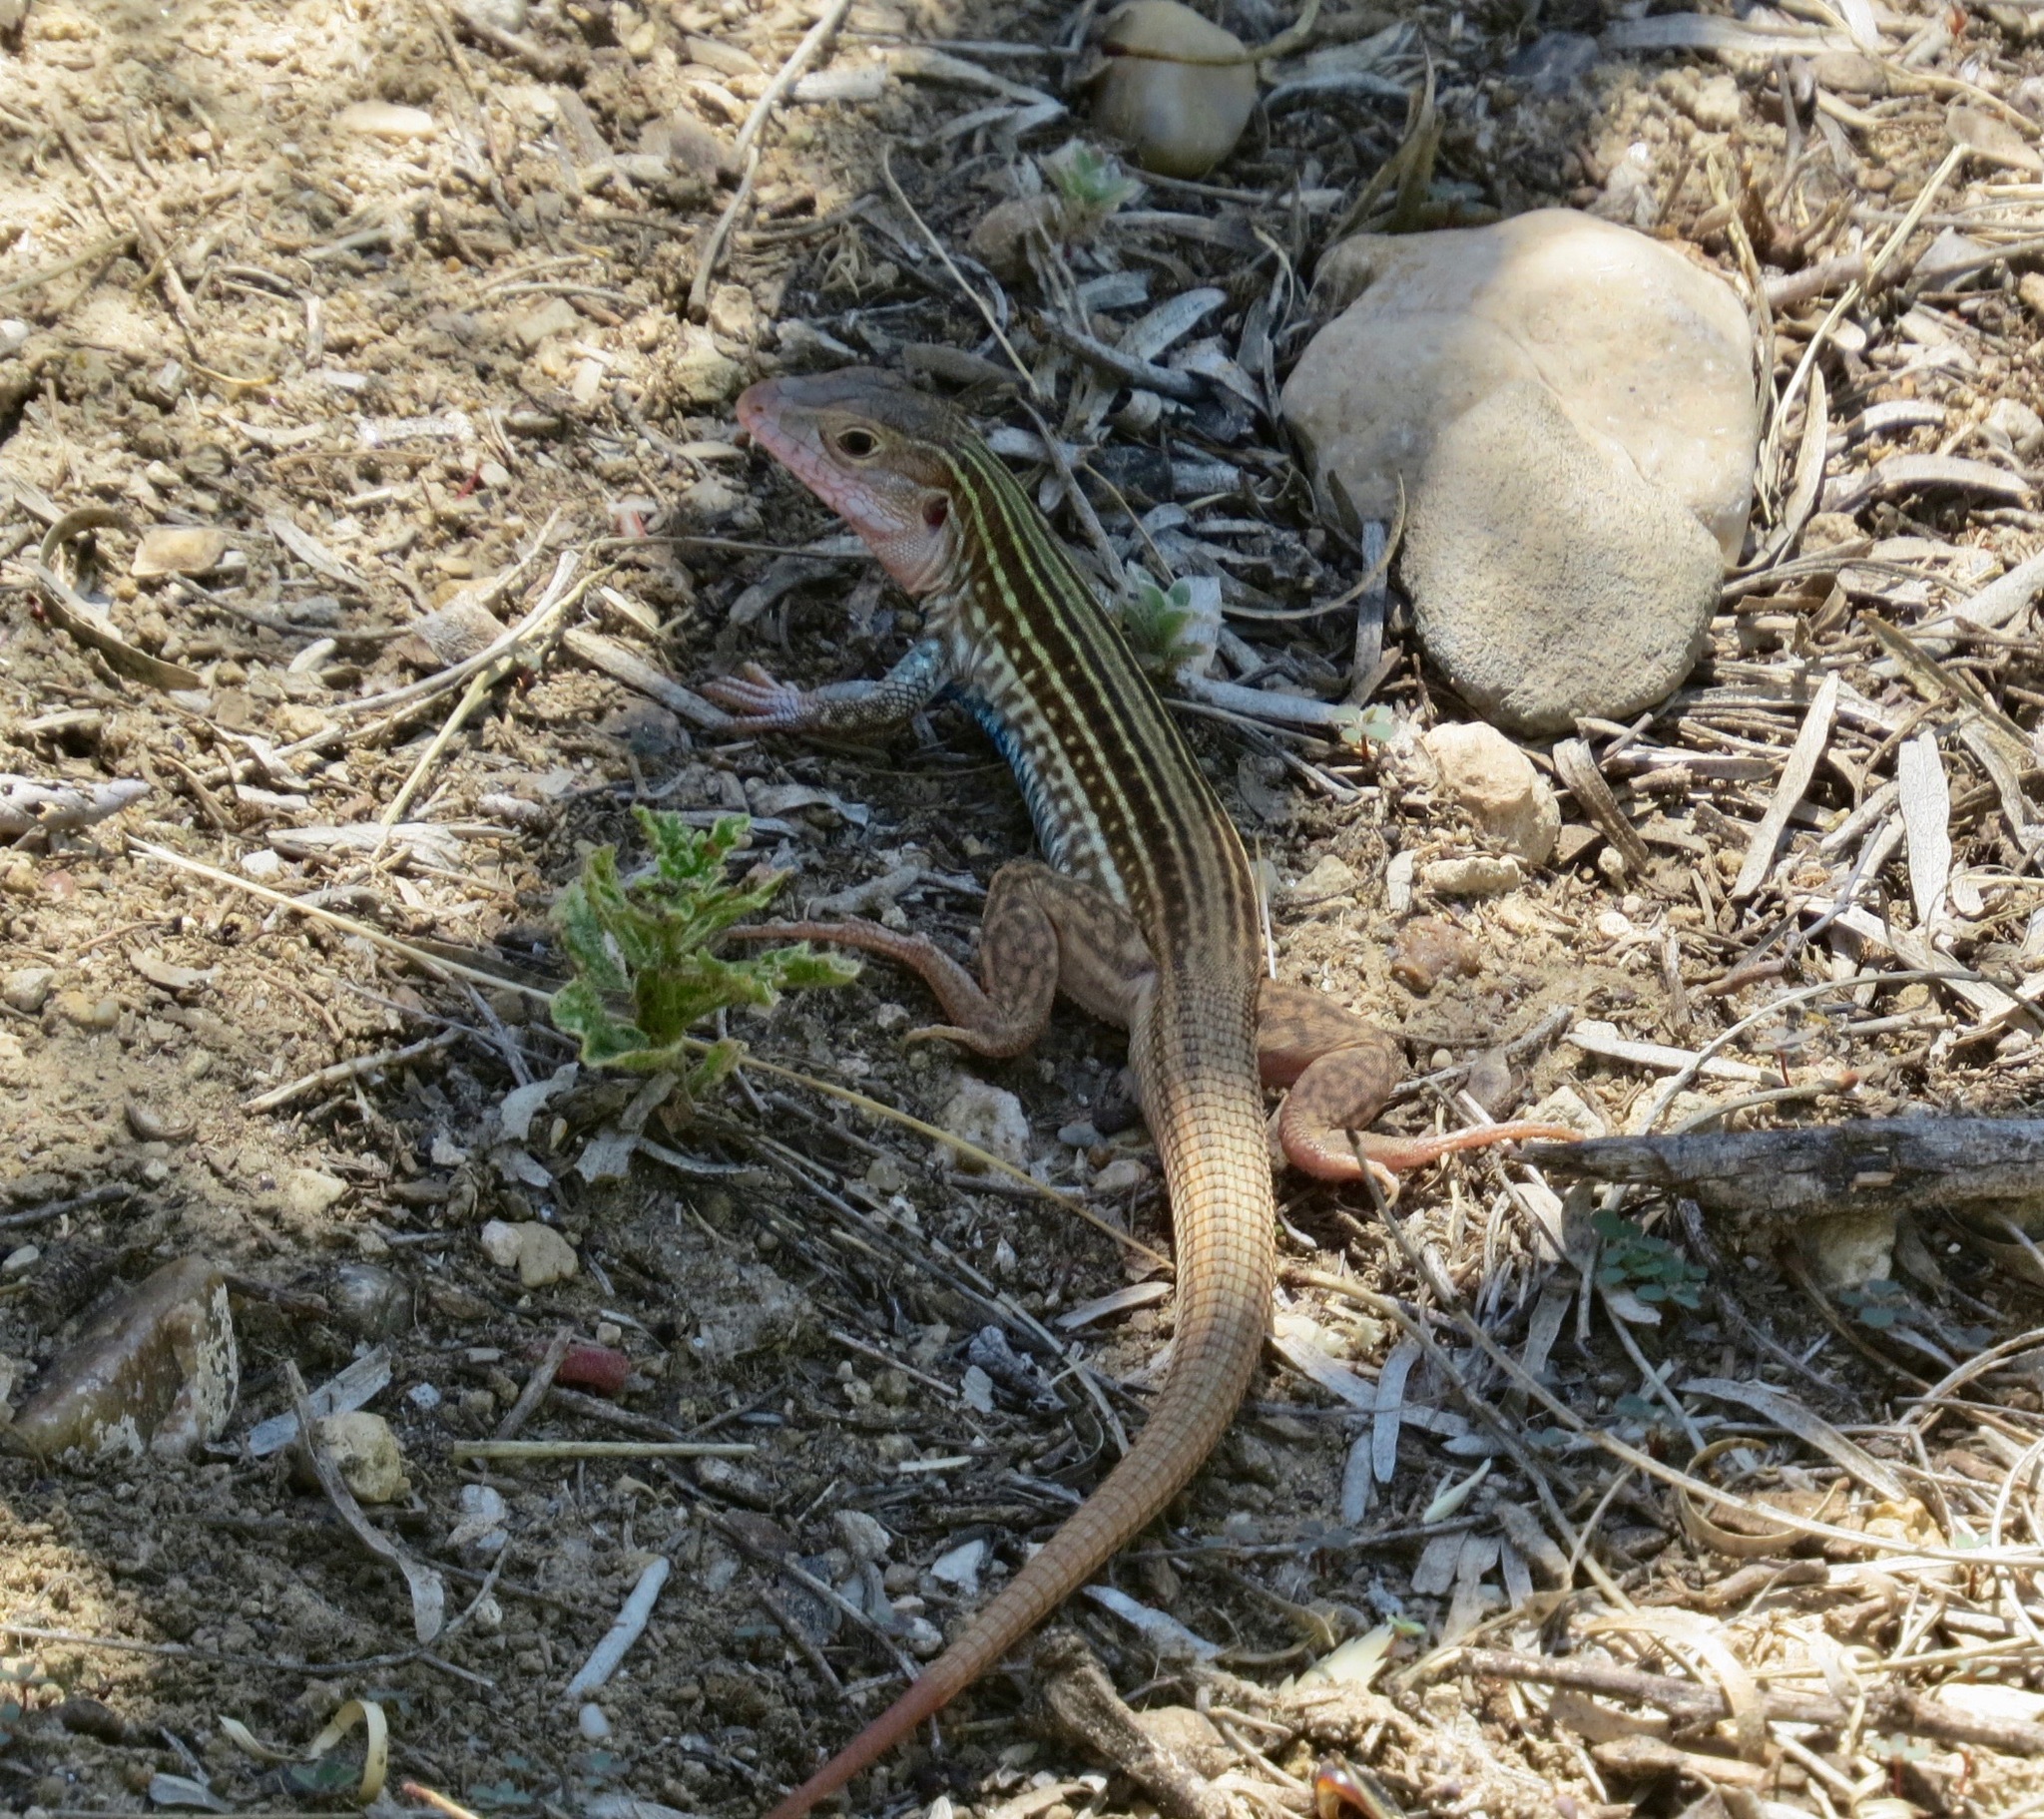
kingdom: Animalia
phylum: Chordata
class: Squamata
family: Teiidae
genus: Aspidoscelis
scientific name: Aspidoscelis gularis
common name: Eastern spotted whiptail
